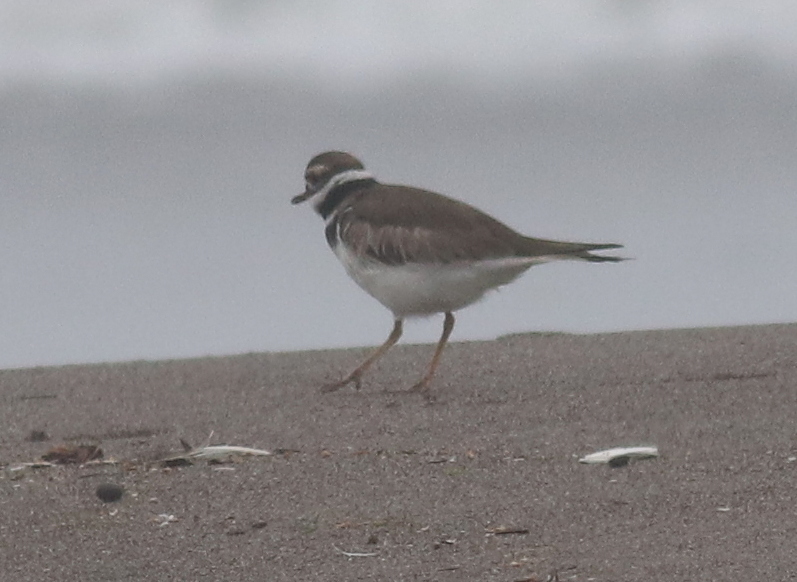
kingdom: Animalia
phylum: Chordata
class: Aves
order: Charadriiformes
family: Charadriidae
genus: Charadrius
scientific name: Charadrius vociferus
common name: Killdeer
